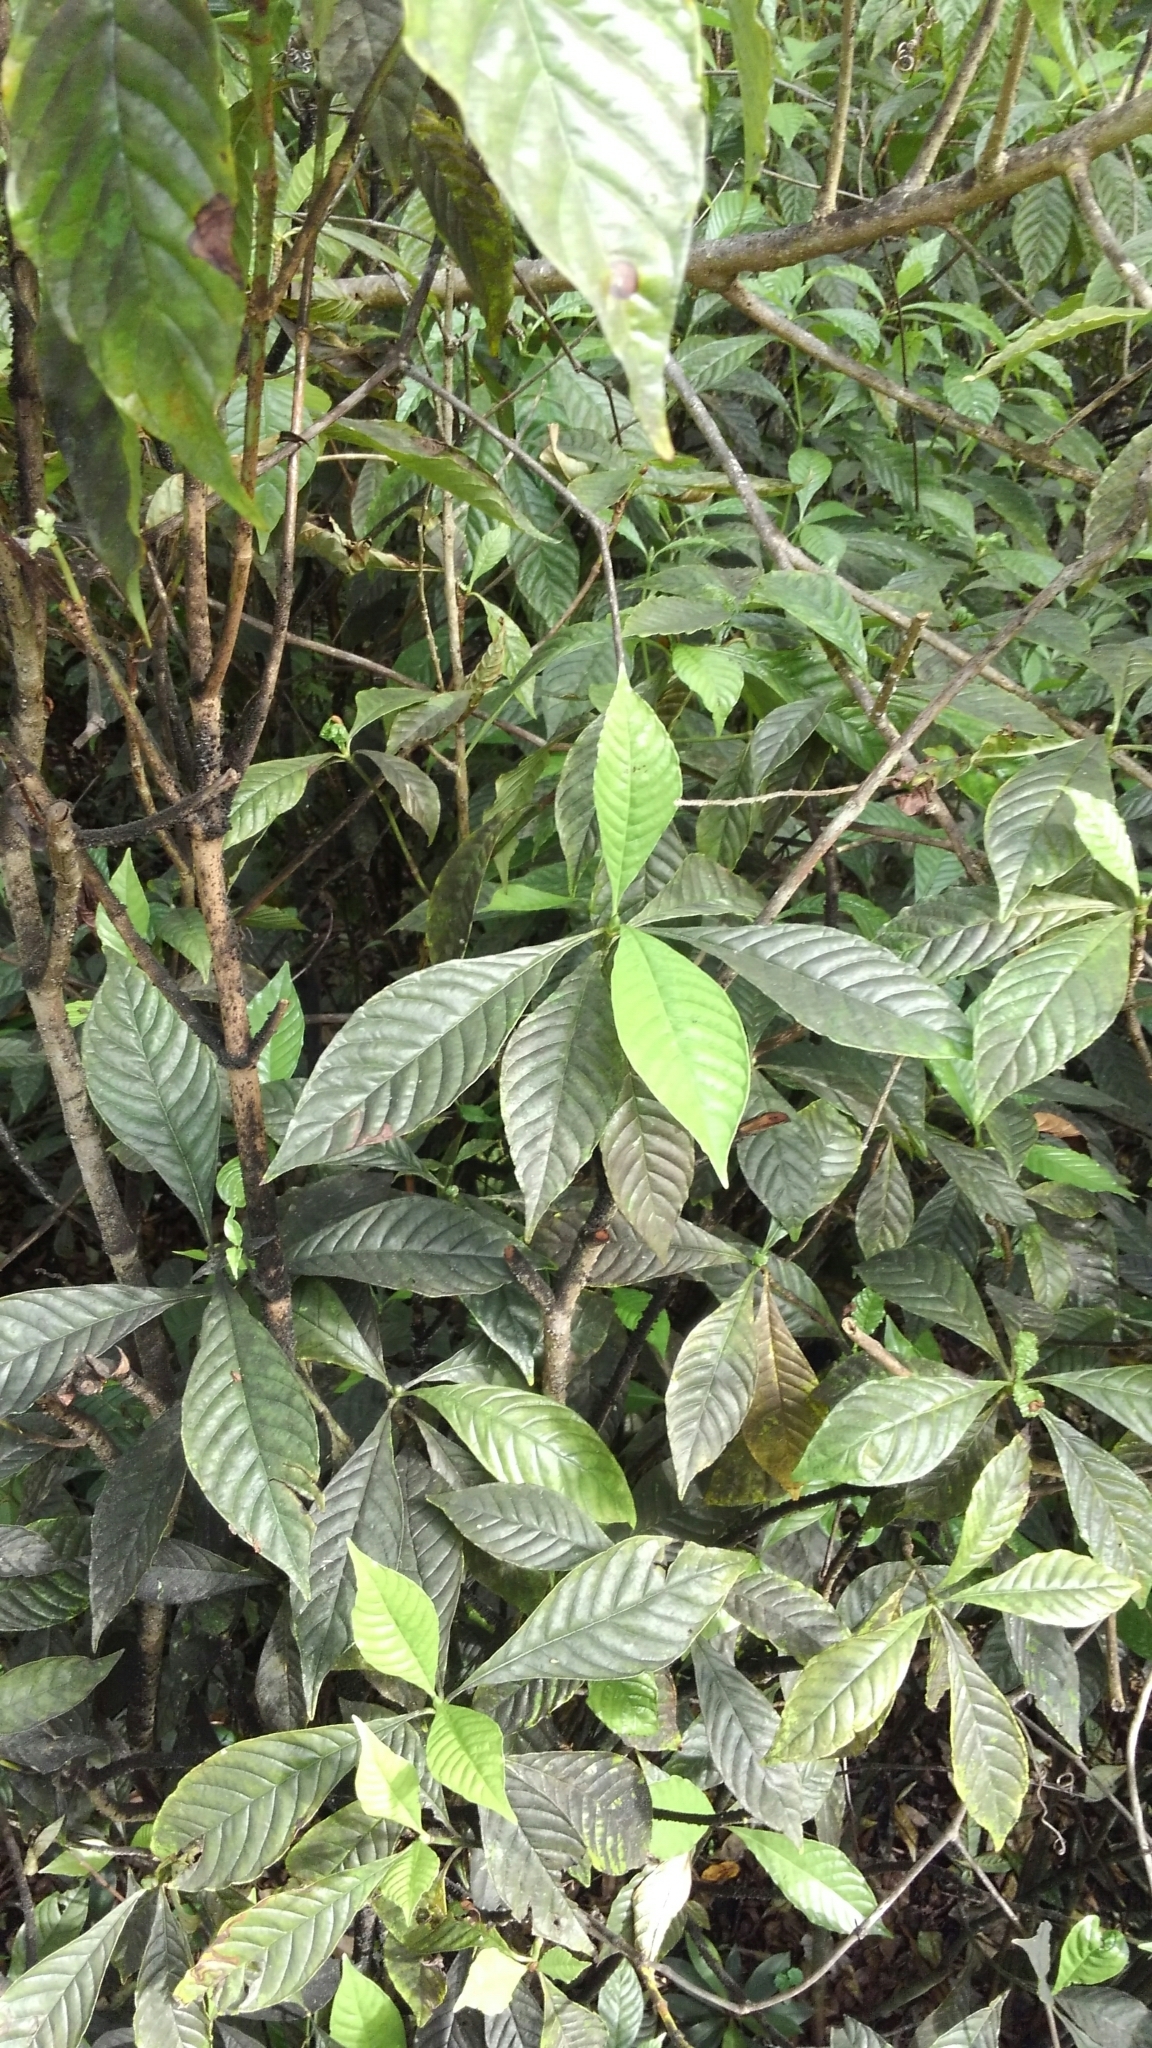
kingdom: Plantae
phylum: Tracheophyta
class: Magnoliopsida
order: Gentianales
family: Rubiaceae
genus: Psychotria
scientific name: Psychotria nervosa
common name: Bastard cankerberry
